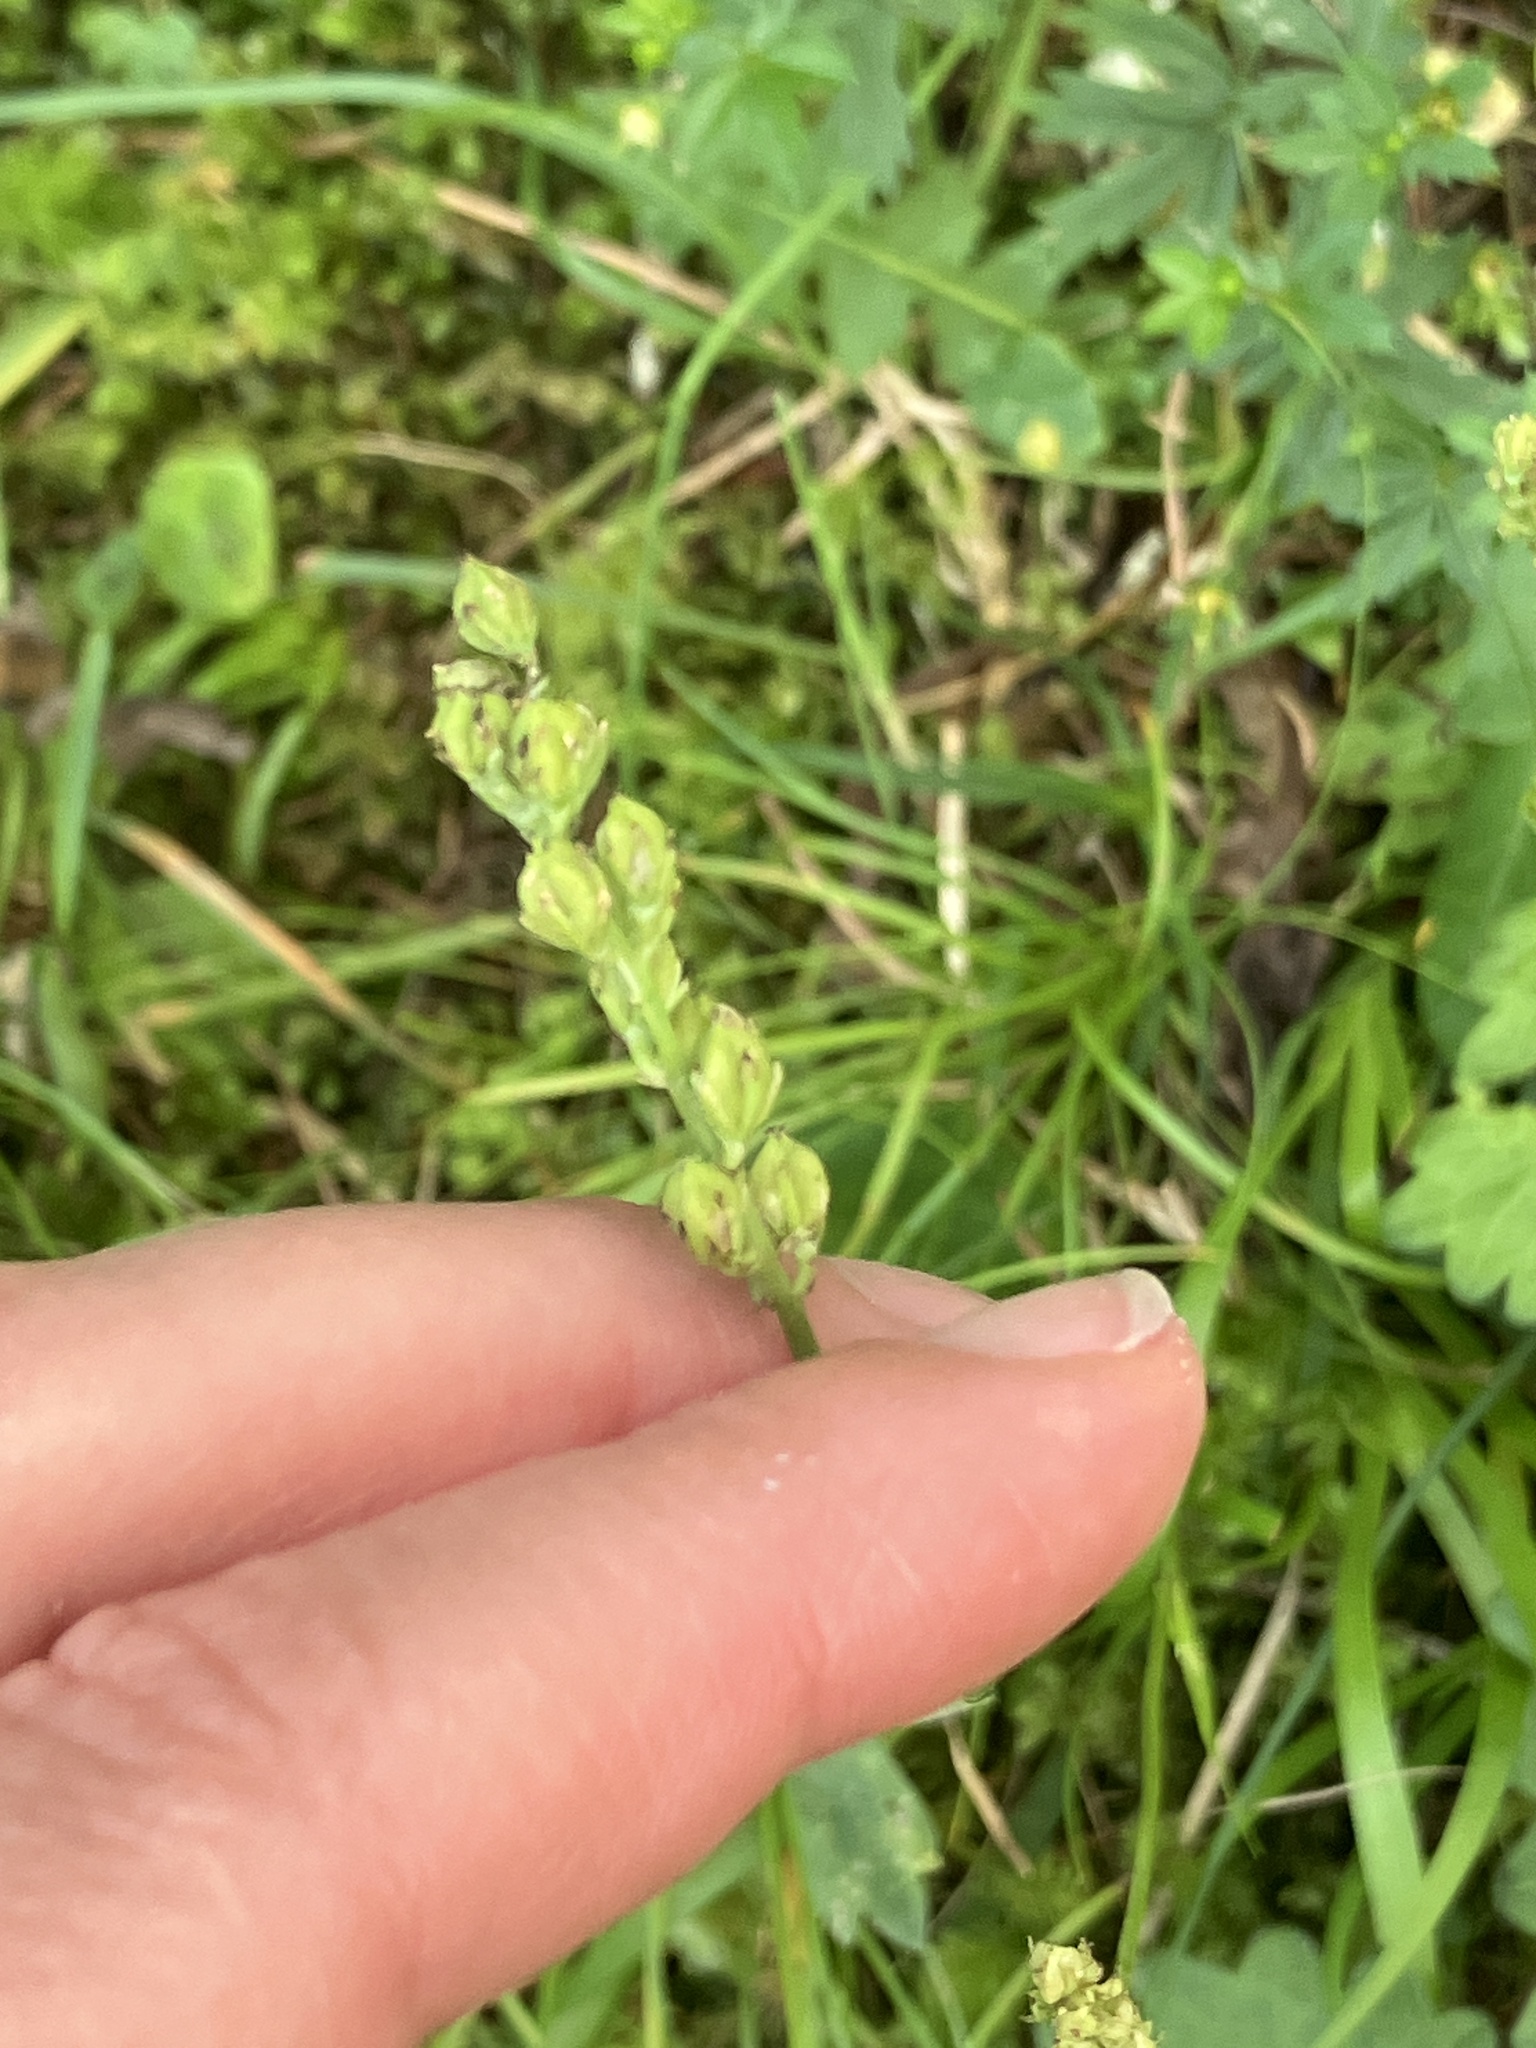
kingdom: Plantae
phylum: Tracheophyta
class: Liliopsida
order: Alismatales
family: Tofieldiaceae
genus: Tofieldia
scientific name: Tofieldia calyculata
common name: German-asphodel
